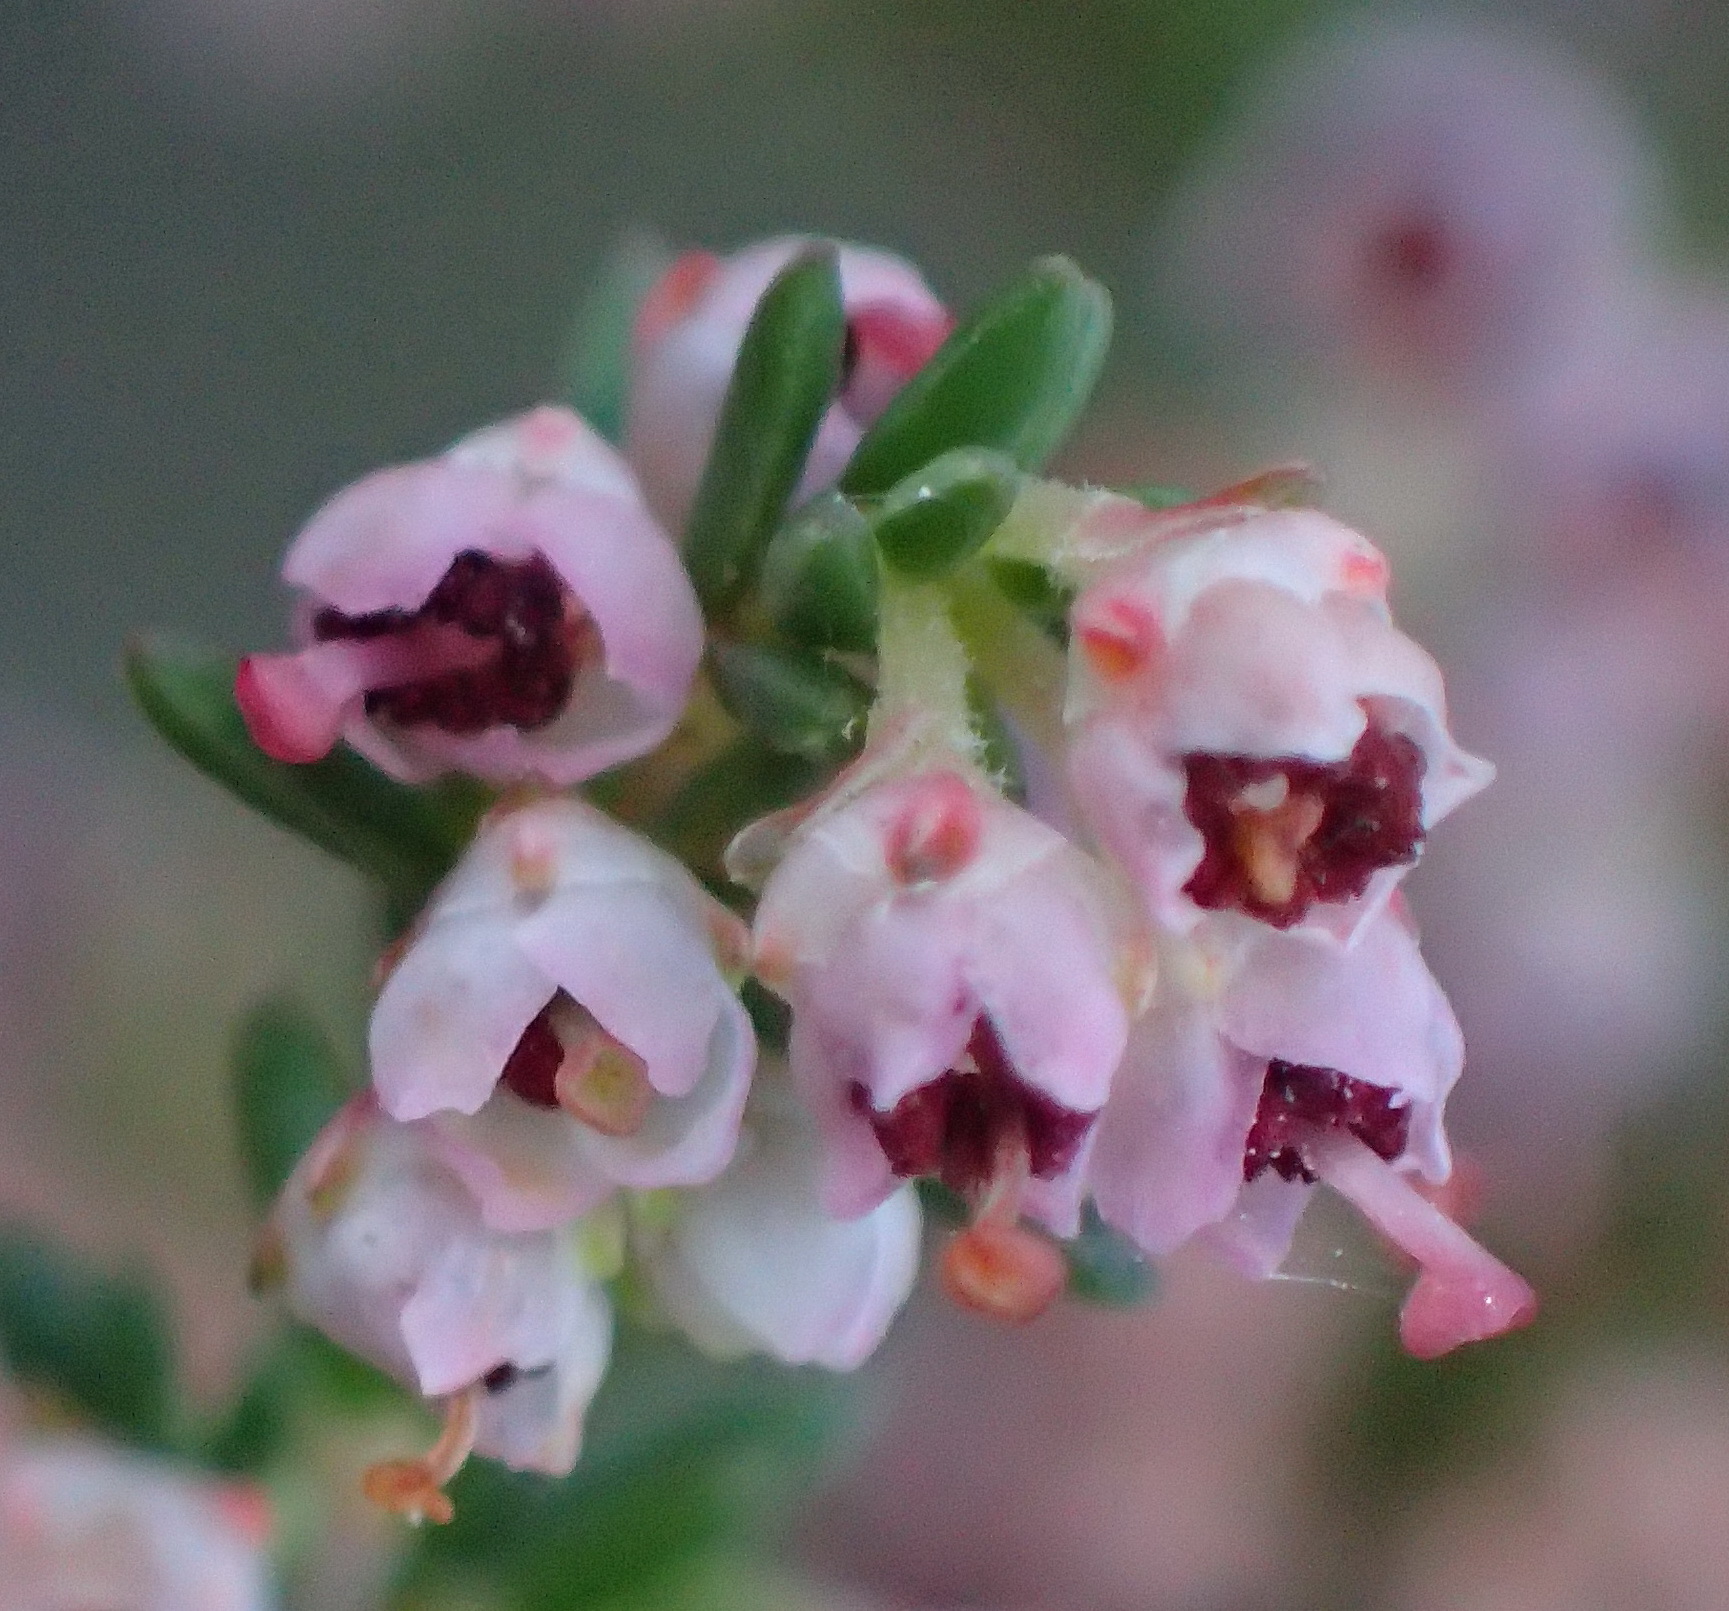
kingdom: Plantae
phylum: Tracheophyta
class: Magnoliopsida
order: Ericales
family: Ericaceae
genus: Erica
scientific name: Erica sparsa
